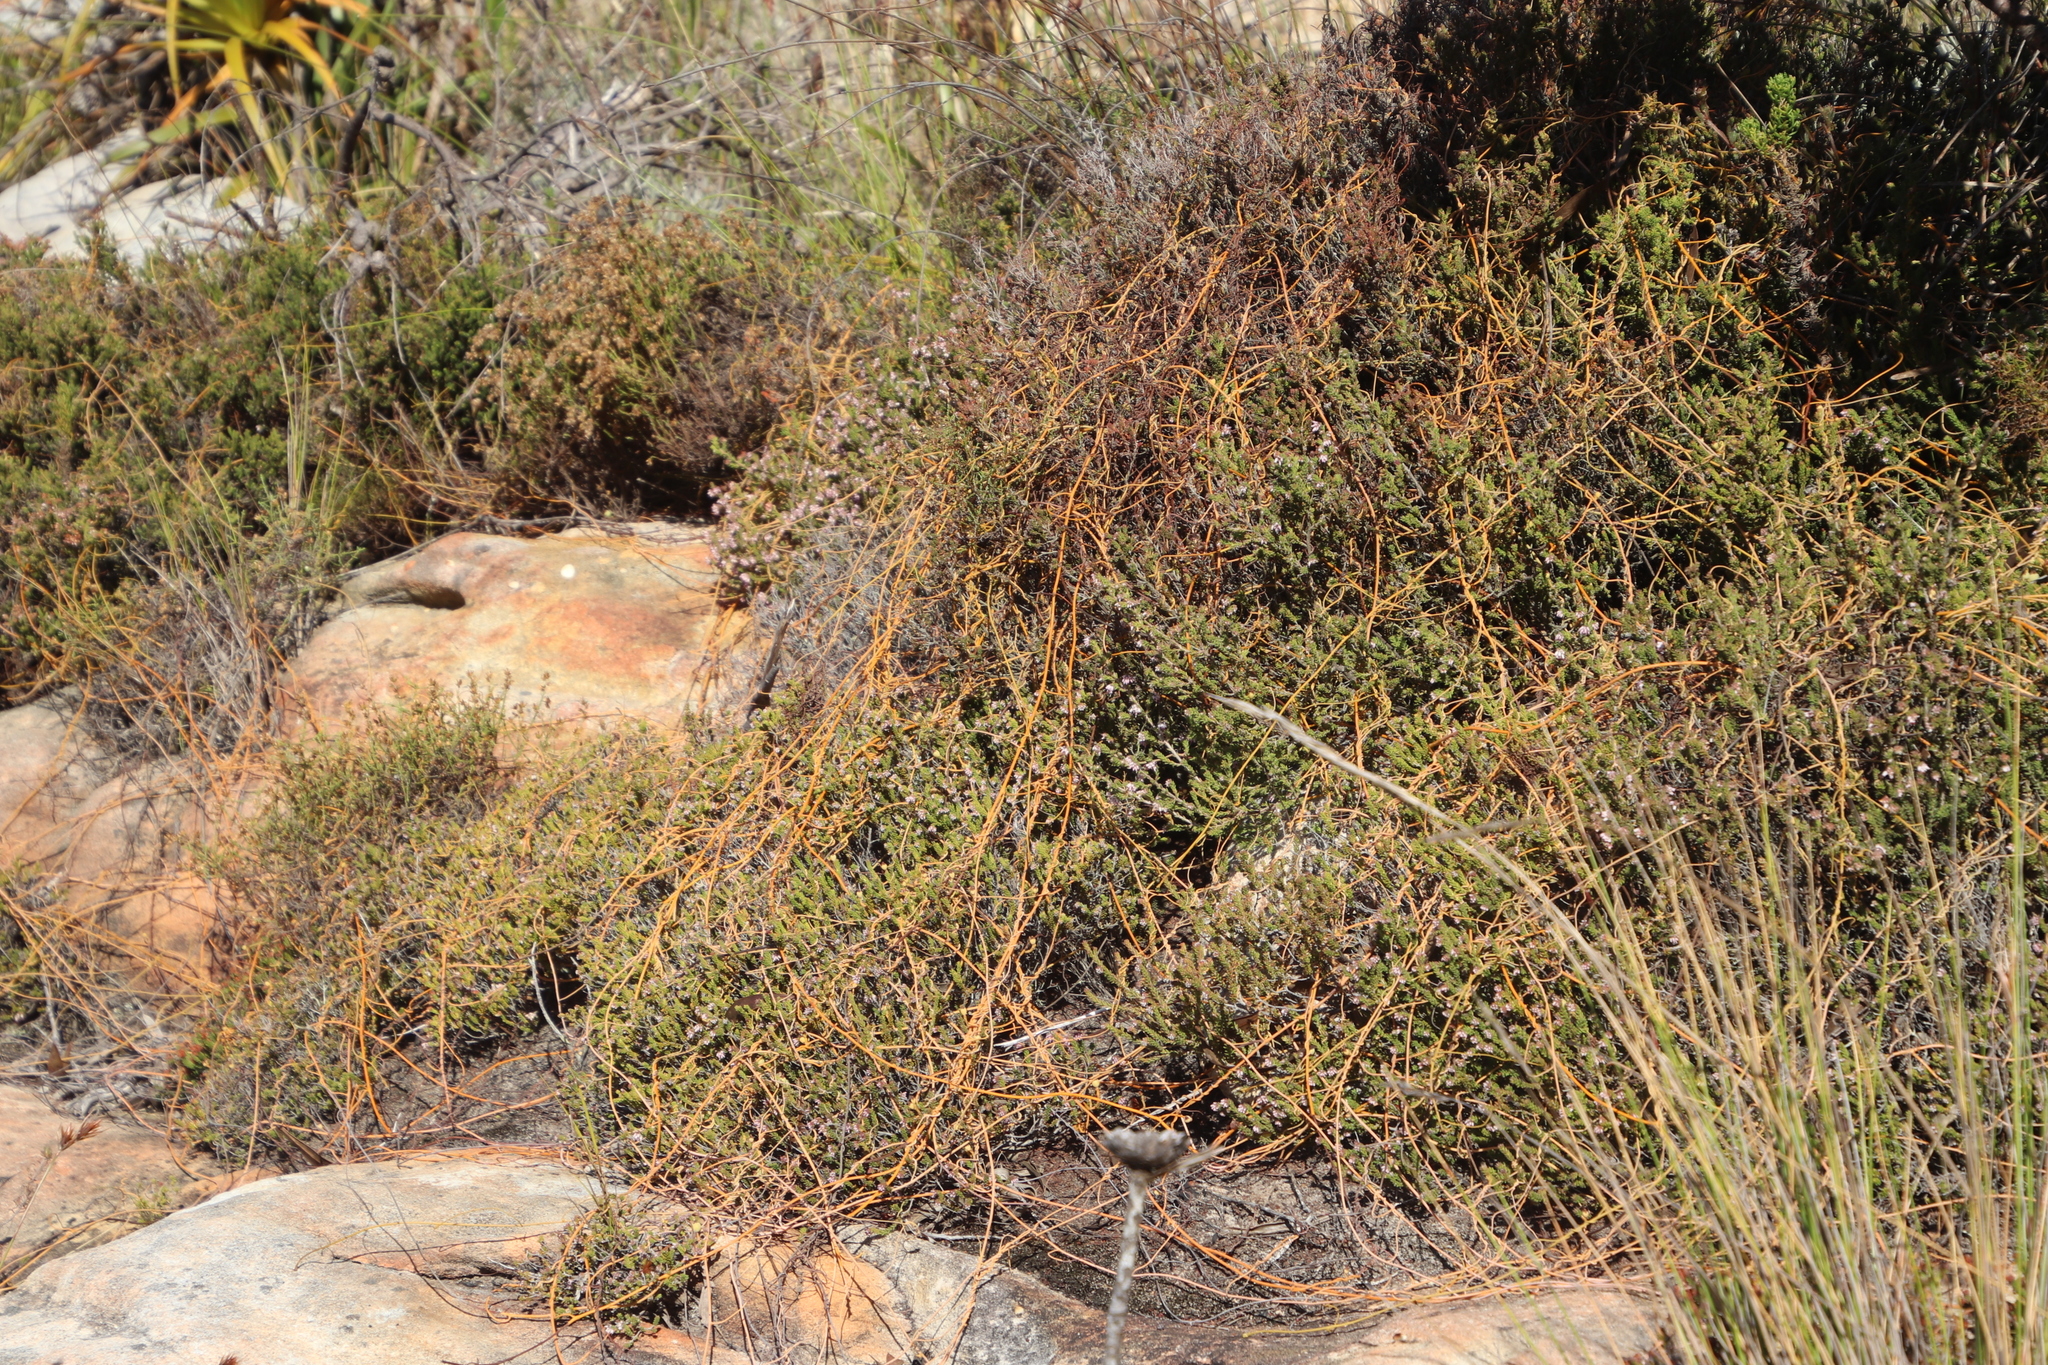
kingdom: Plantae
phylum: Tracheophyta
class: Magnoliopsida
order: Laurales
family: Lauraceae
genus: Cassytha
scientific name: Cassytha ciliolata
